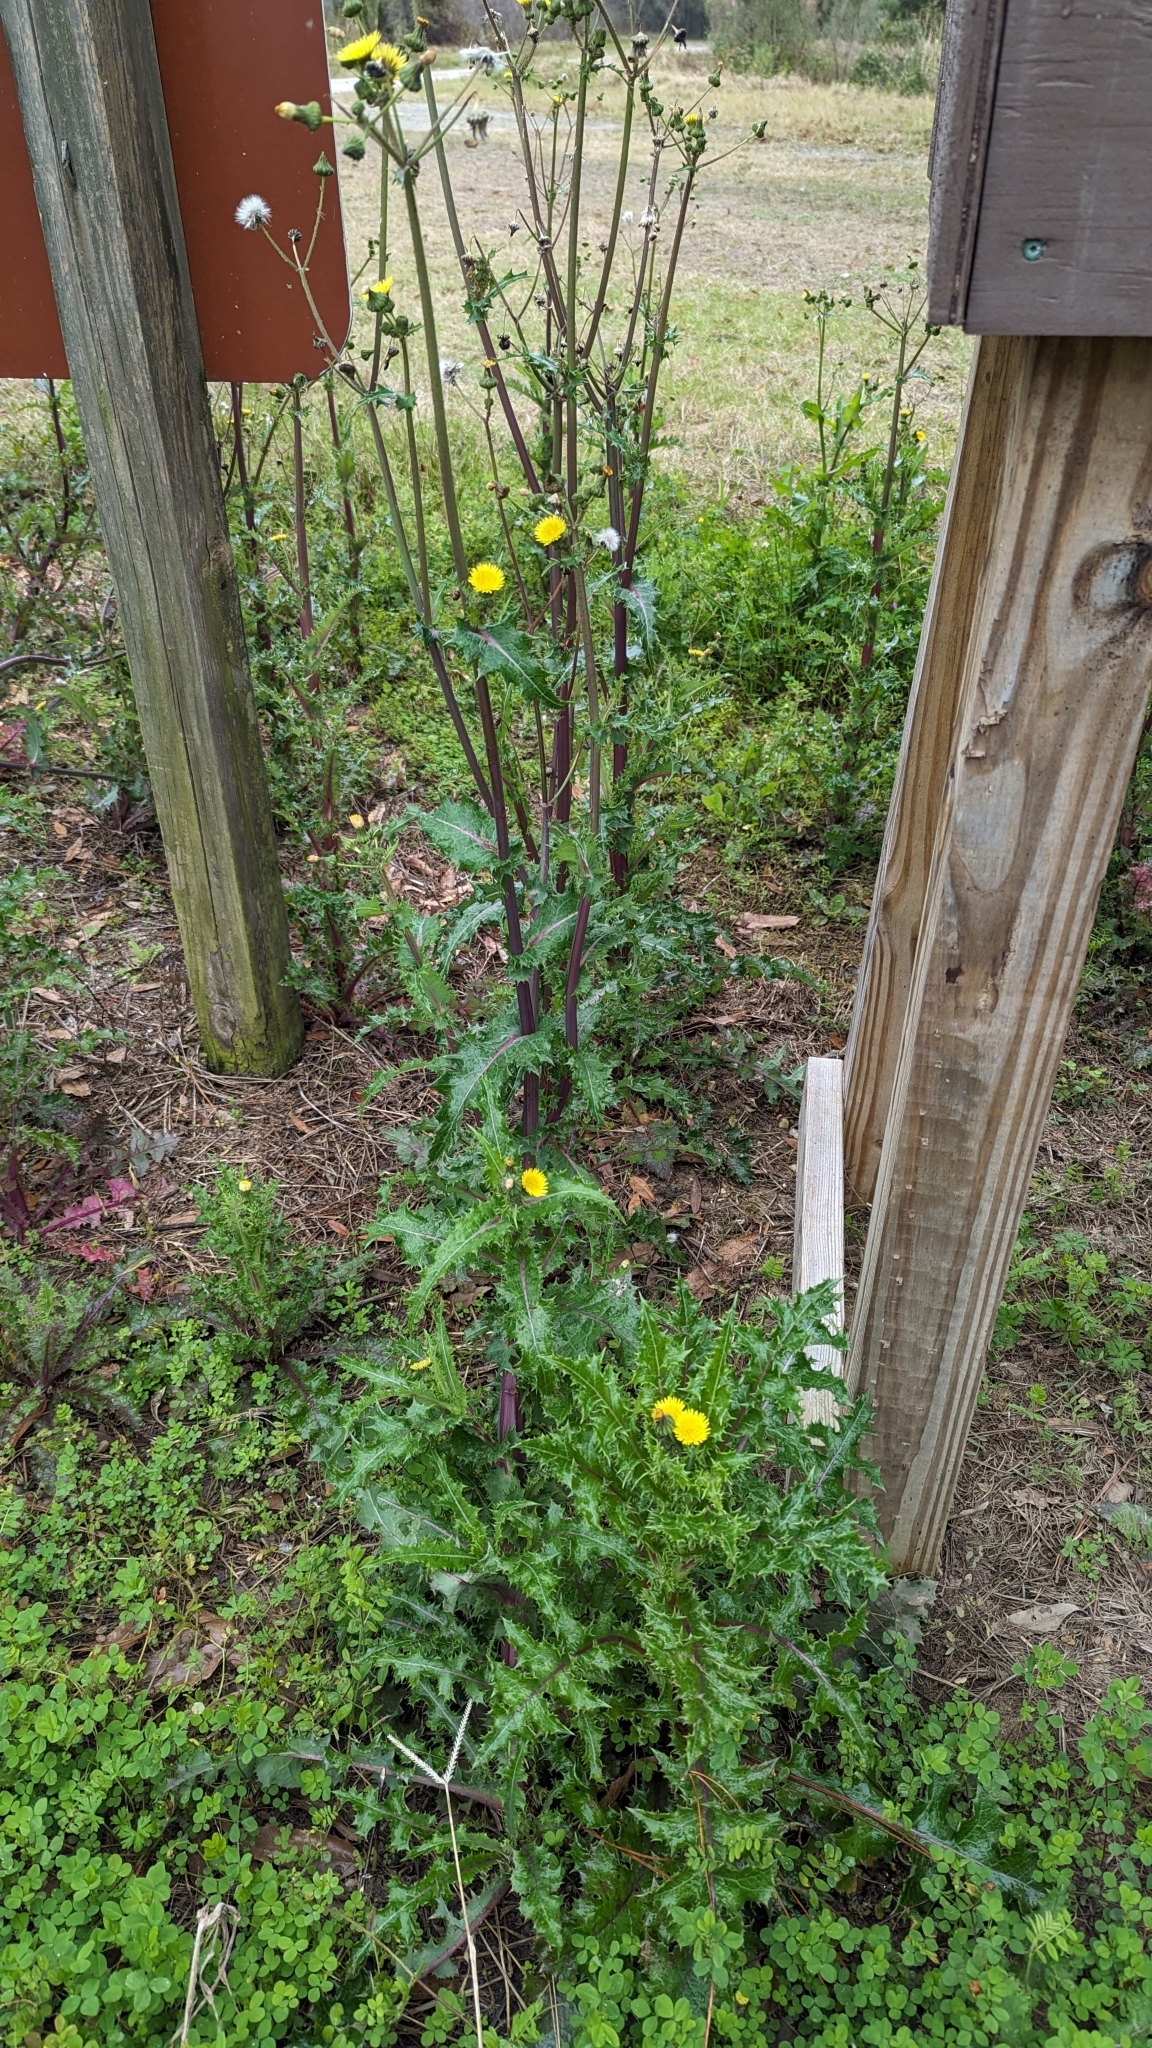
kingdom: Plantae
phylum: Tracheophyta
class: Magnoliopsida
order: Asterales
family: Asteraceae
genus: Sonchus
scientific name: Sonchus asper
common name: Prickly sow-thistle
